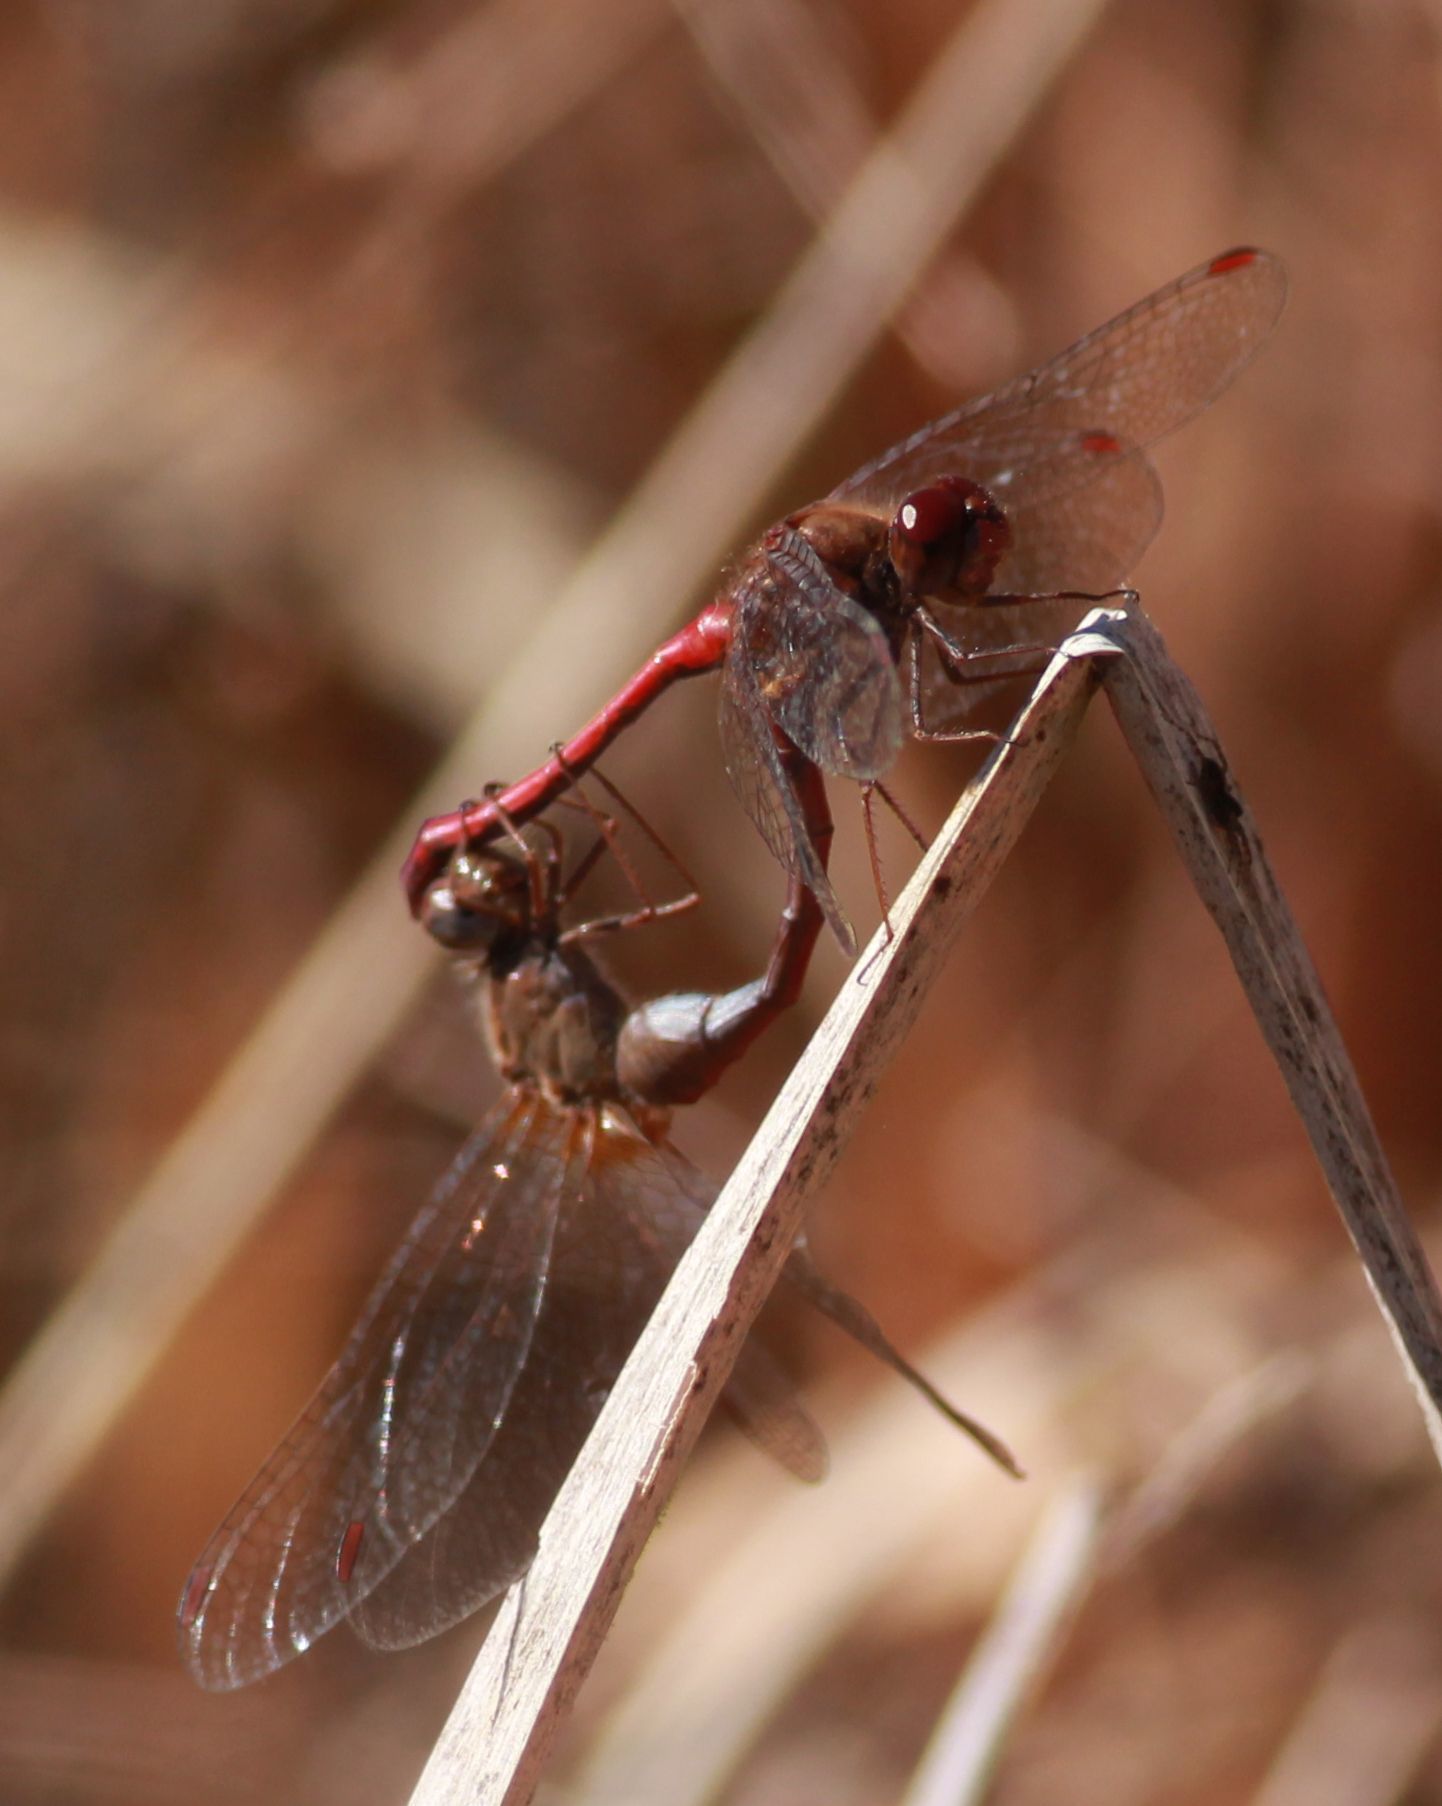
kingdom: Animalia
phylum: Arthropoda
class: Insecta
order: Odonata
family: Libellulidae
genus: Sympetrum
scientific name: Sympetrum vicinum
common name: Autumn meadowhawk
